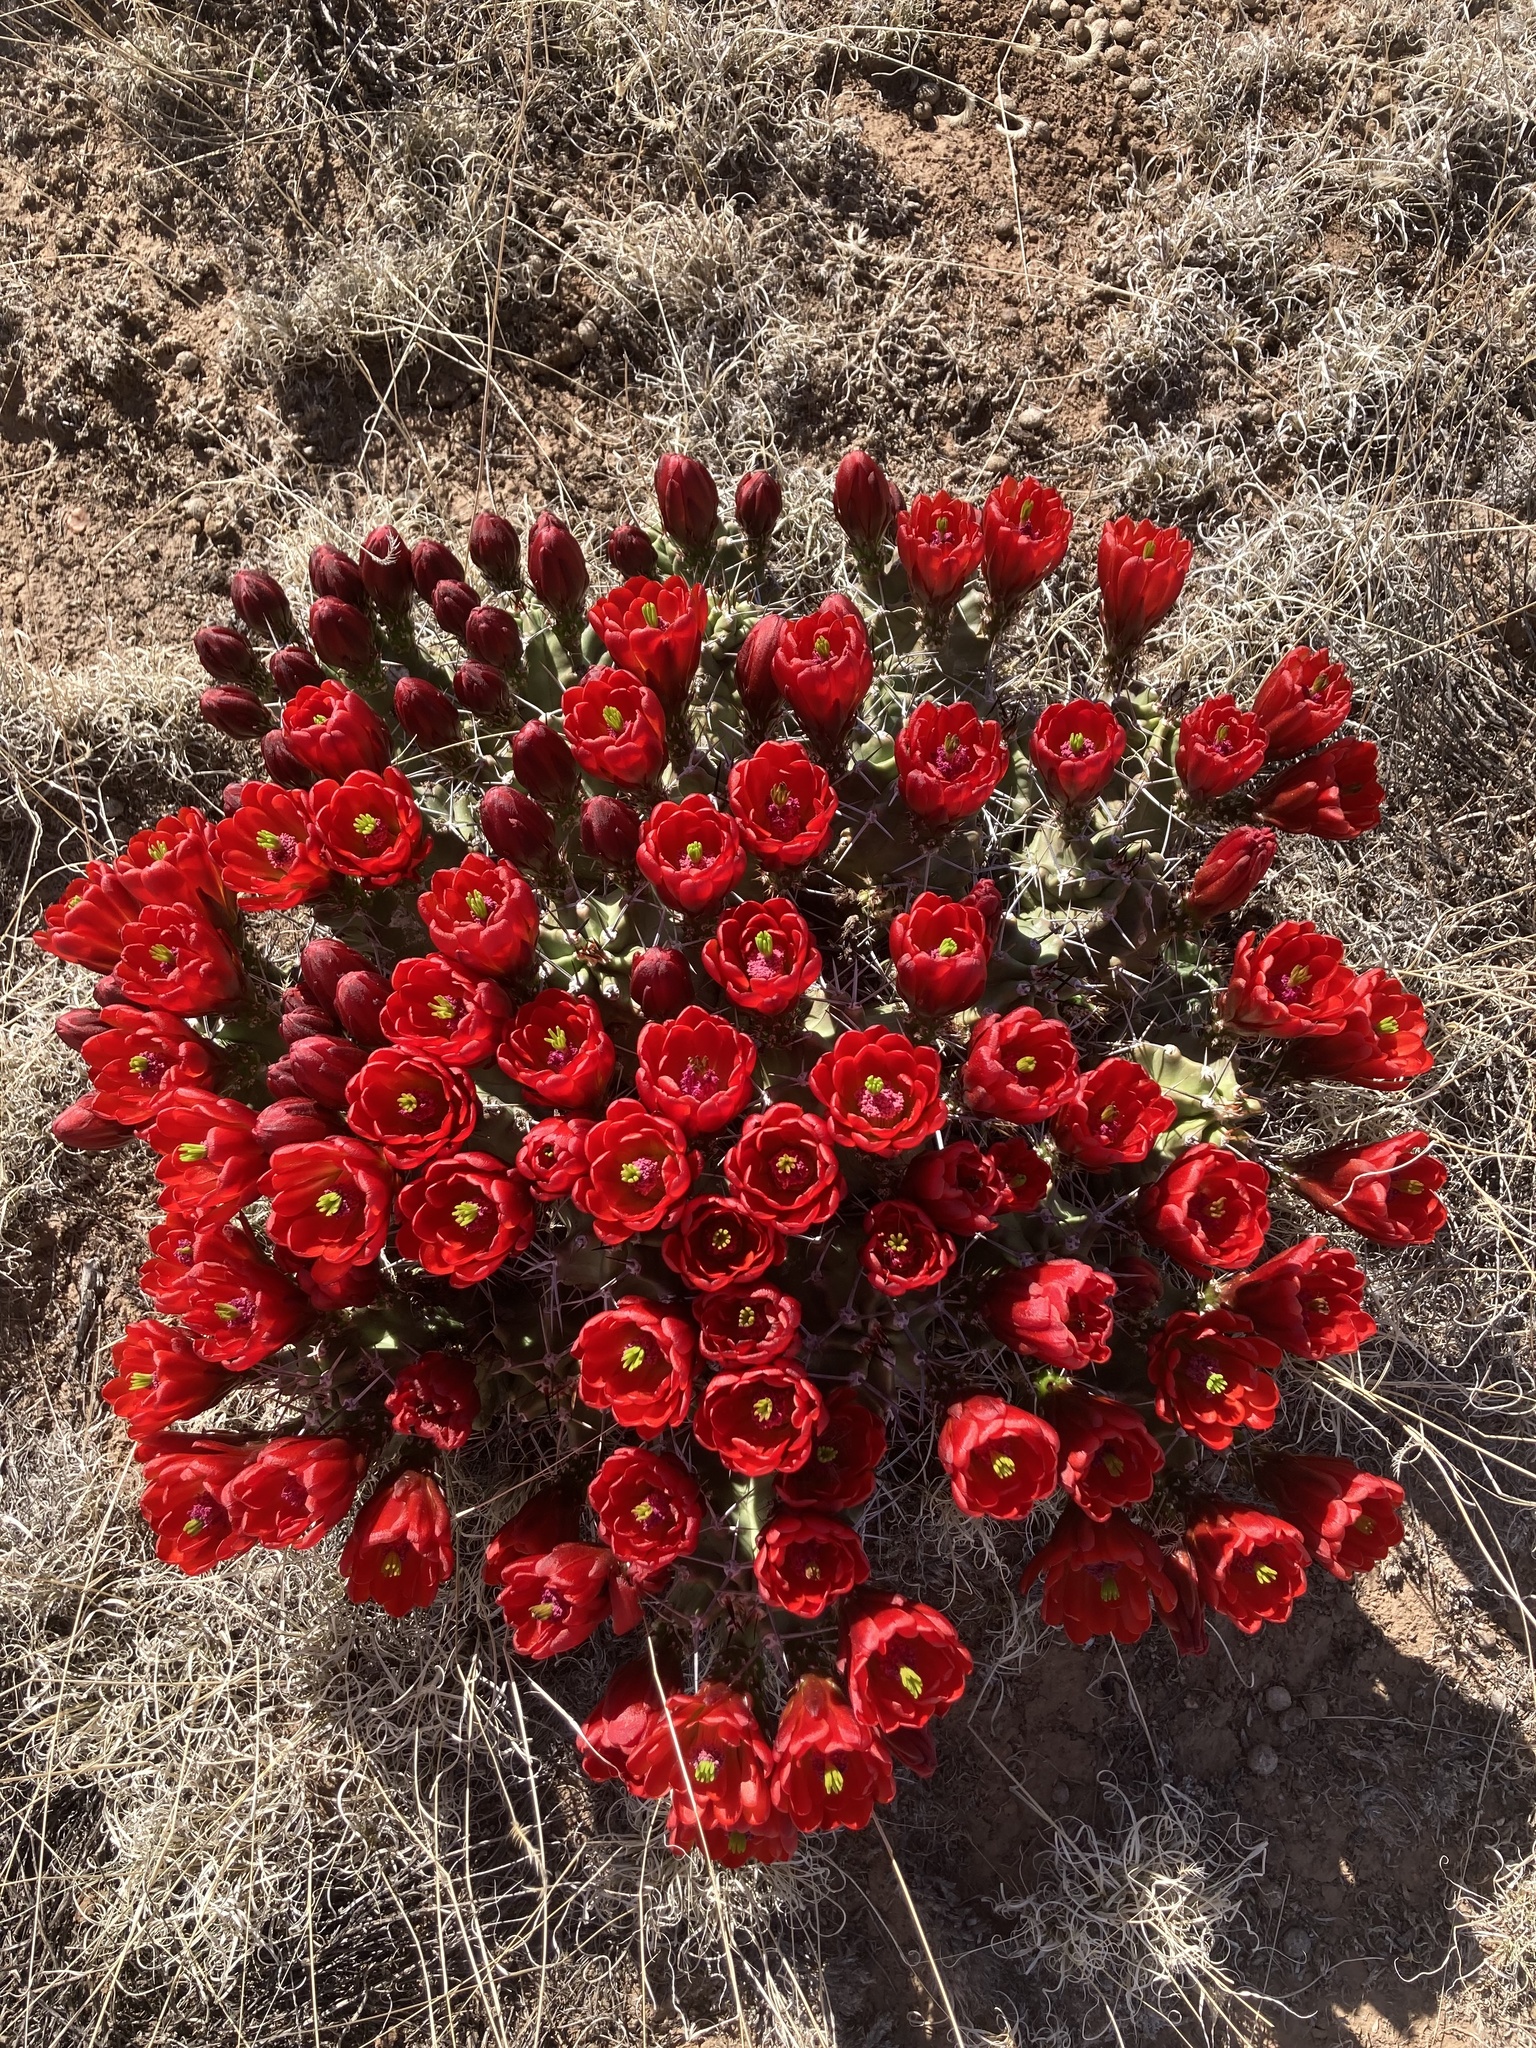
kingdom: Plantae
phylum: Tracheophyta
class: Magnoliopsida
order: Caryophyllales
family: Cactaceae
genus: Echinocereus
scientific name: Echinocereus triglochidiatus
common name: Claretcup hedgehog
